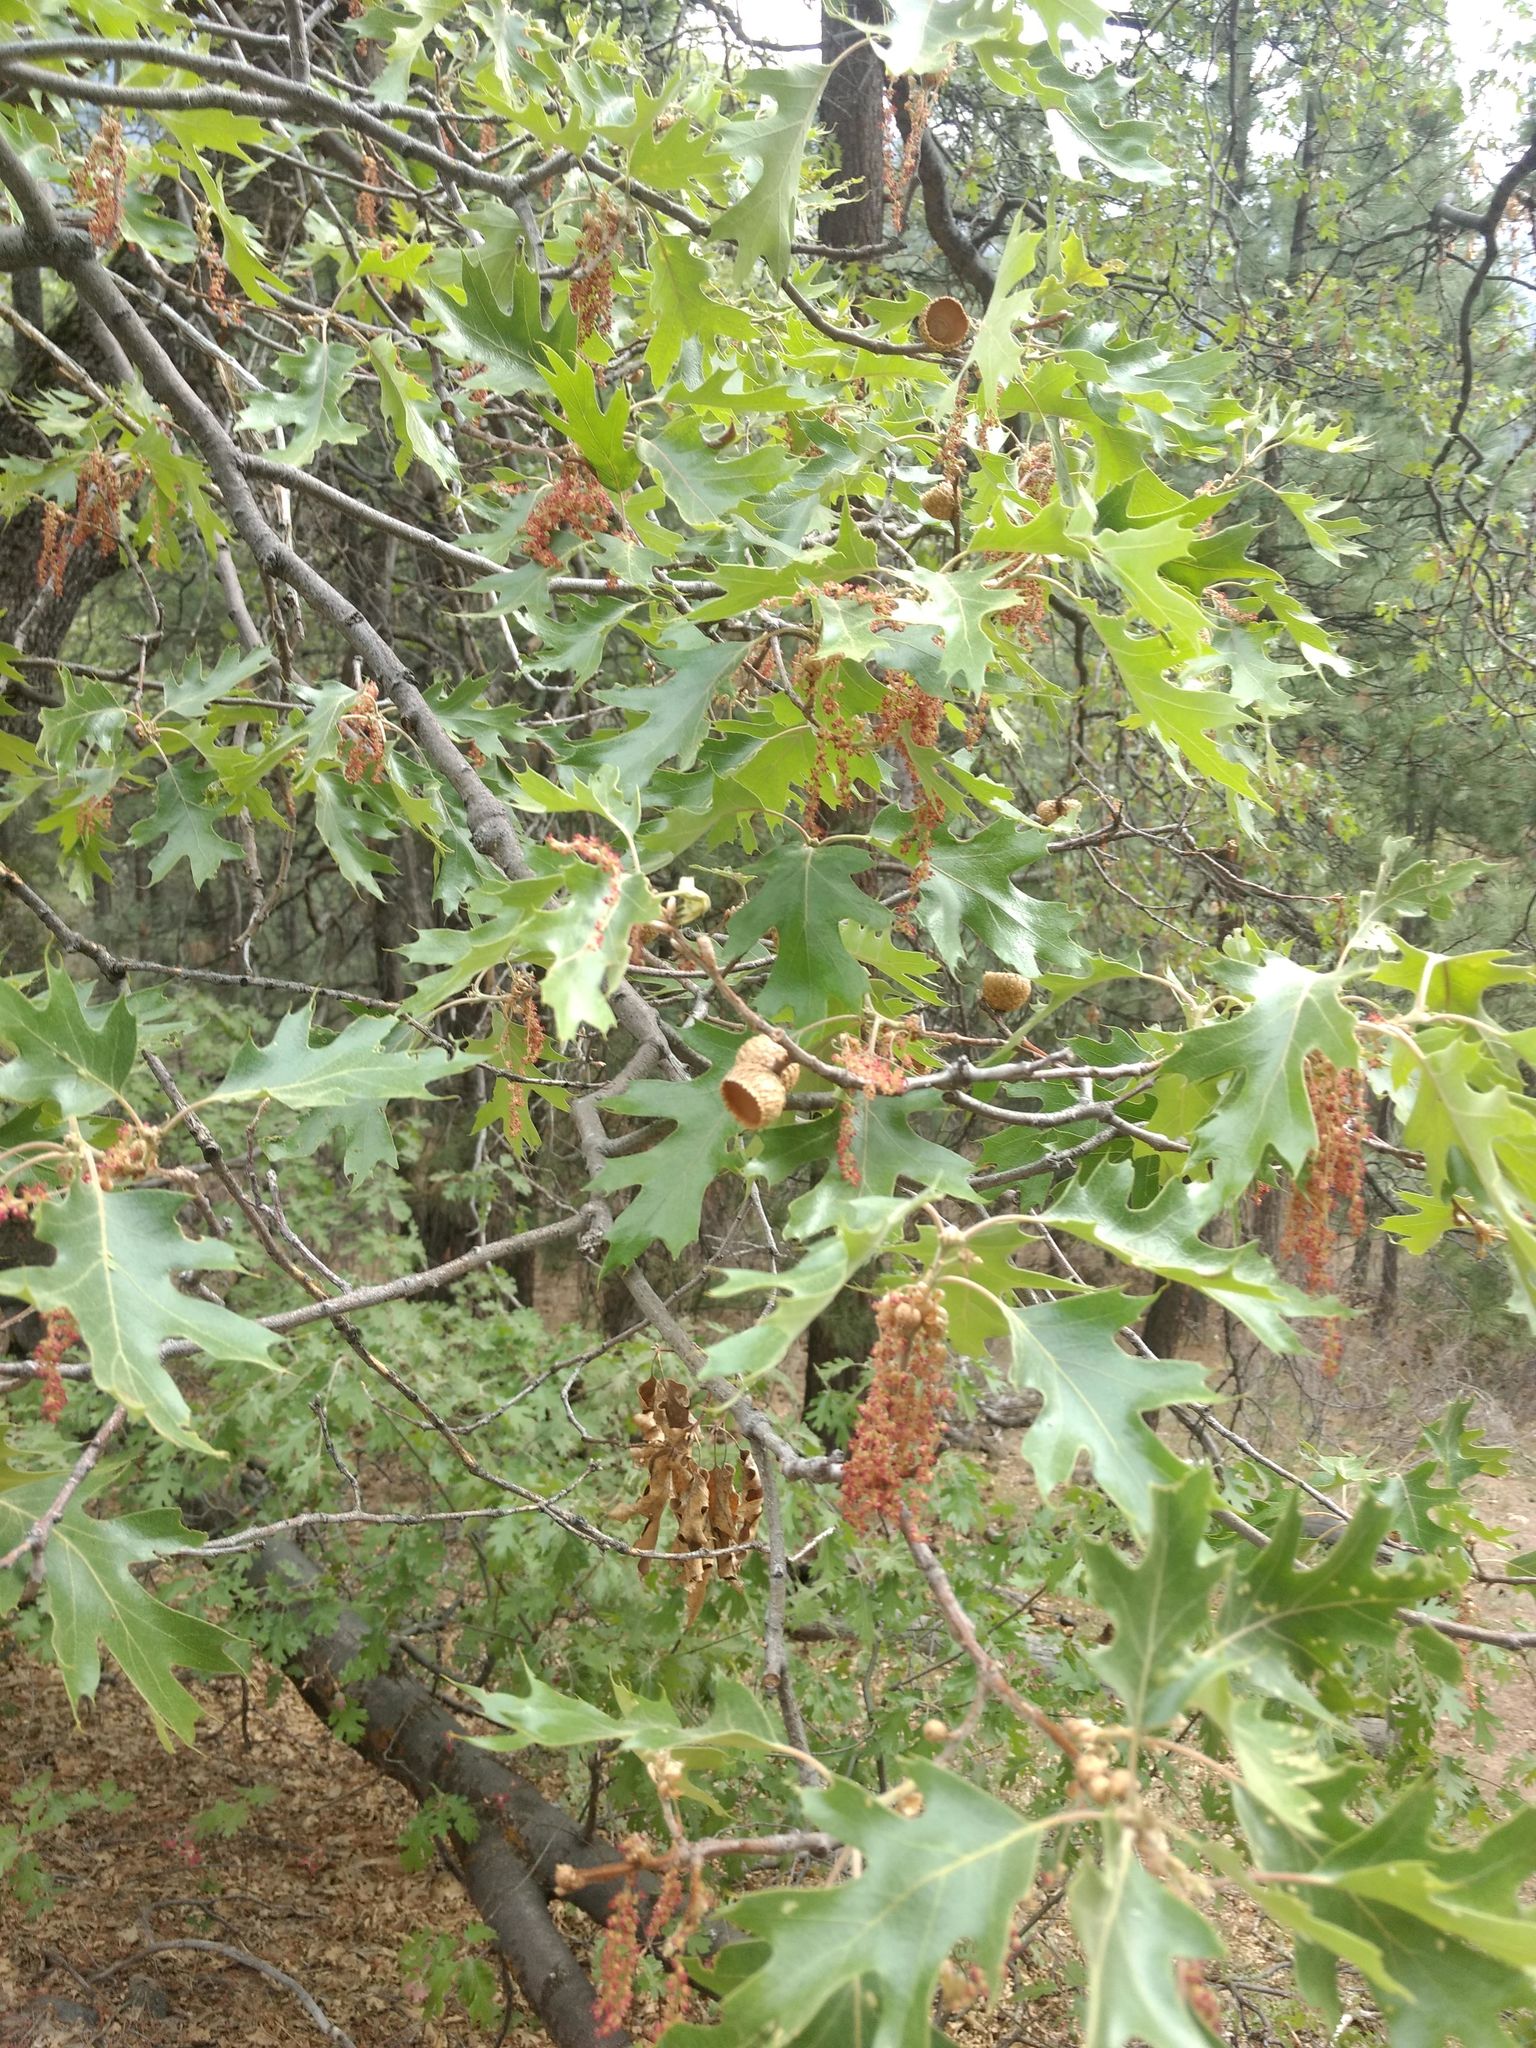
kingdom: Plantae
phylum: Tracheophyta
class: Magnoliopsida
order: Fagales
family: Fagaceae
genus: Quercus
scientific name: Quercus kelloggii
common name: California black oak
